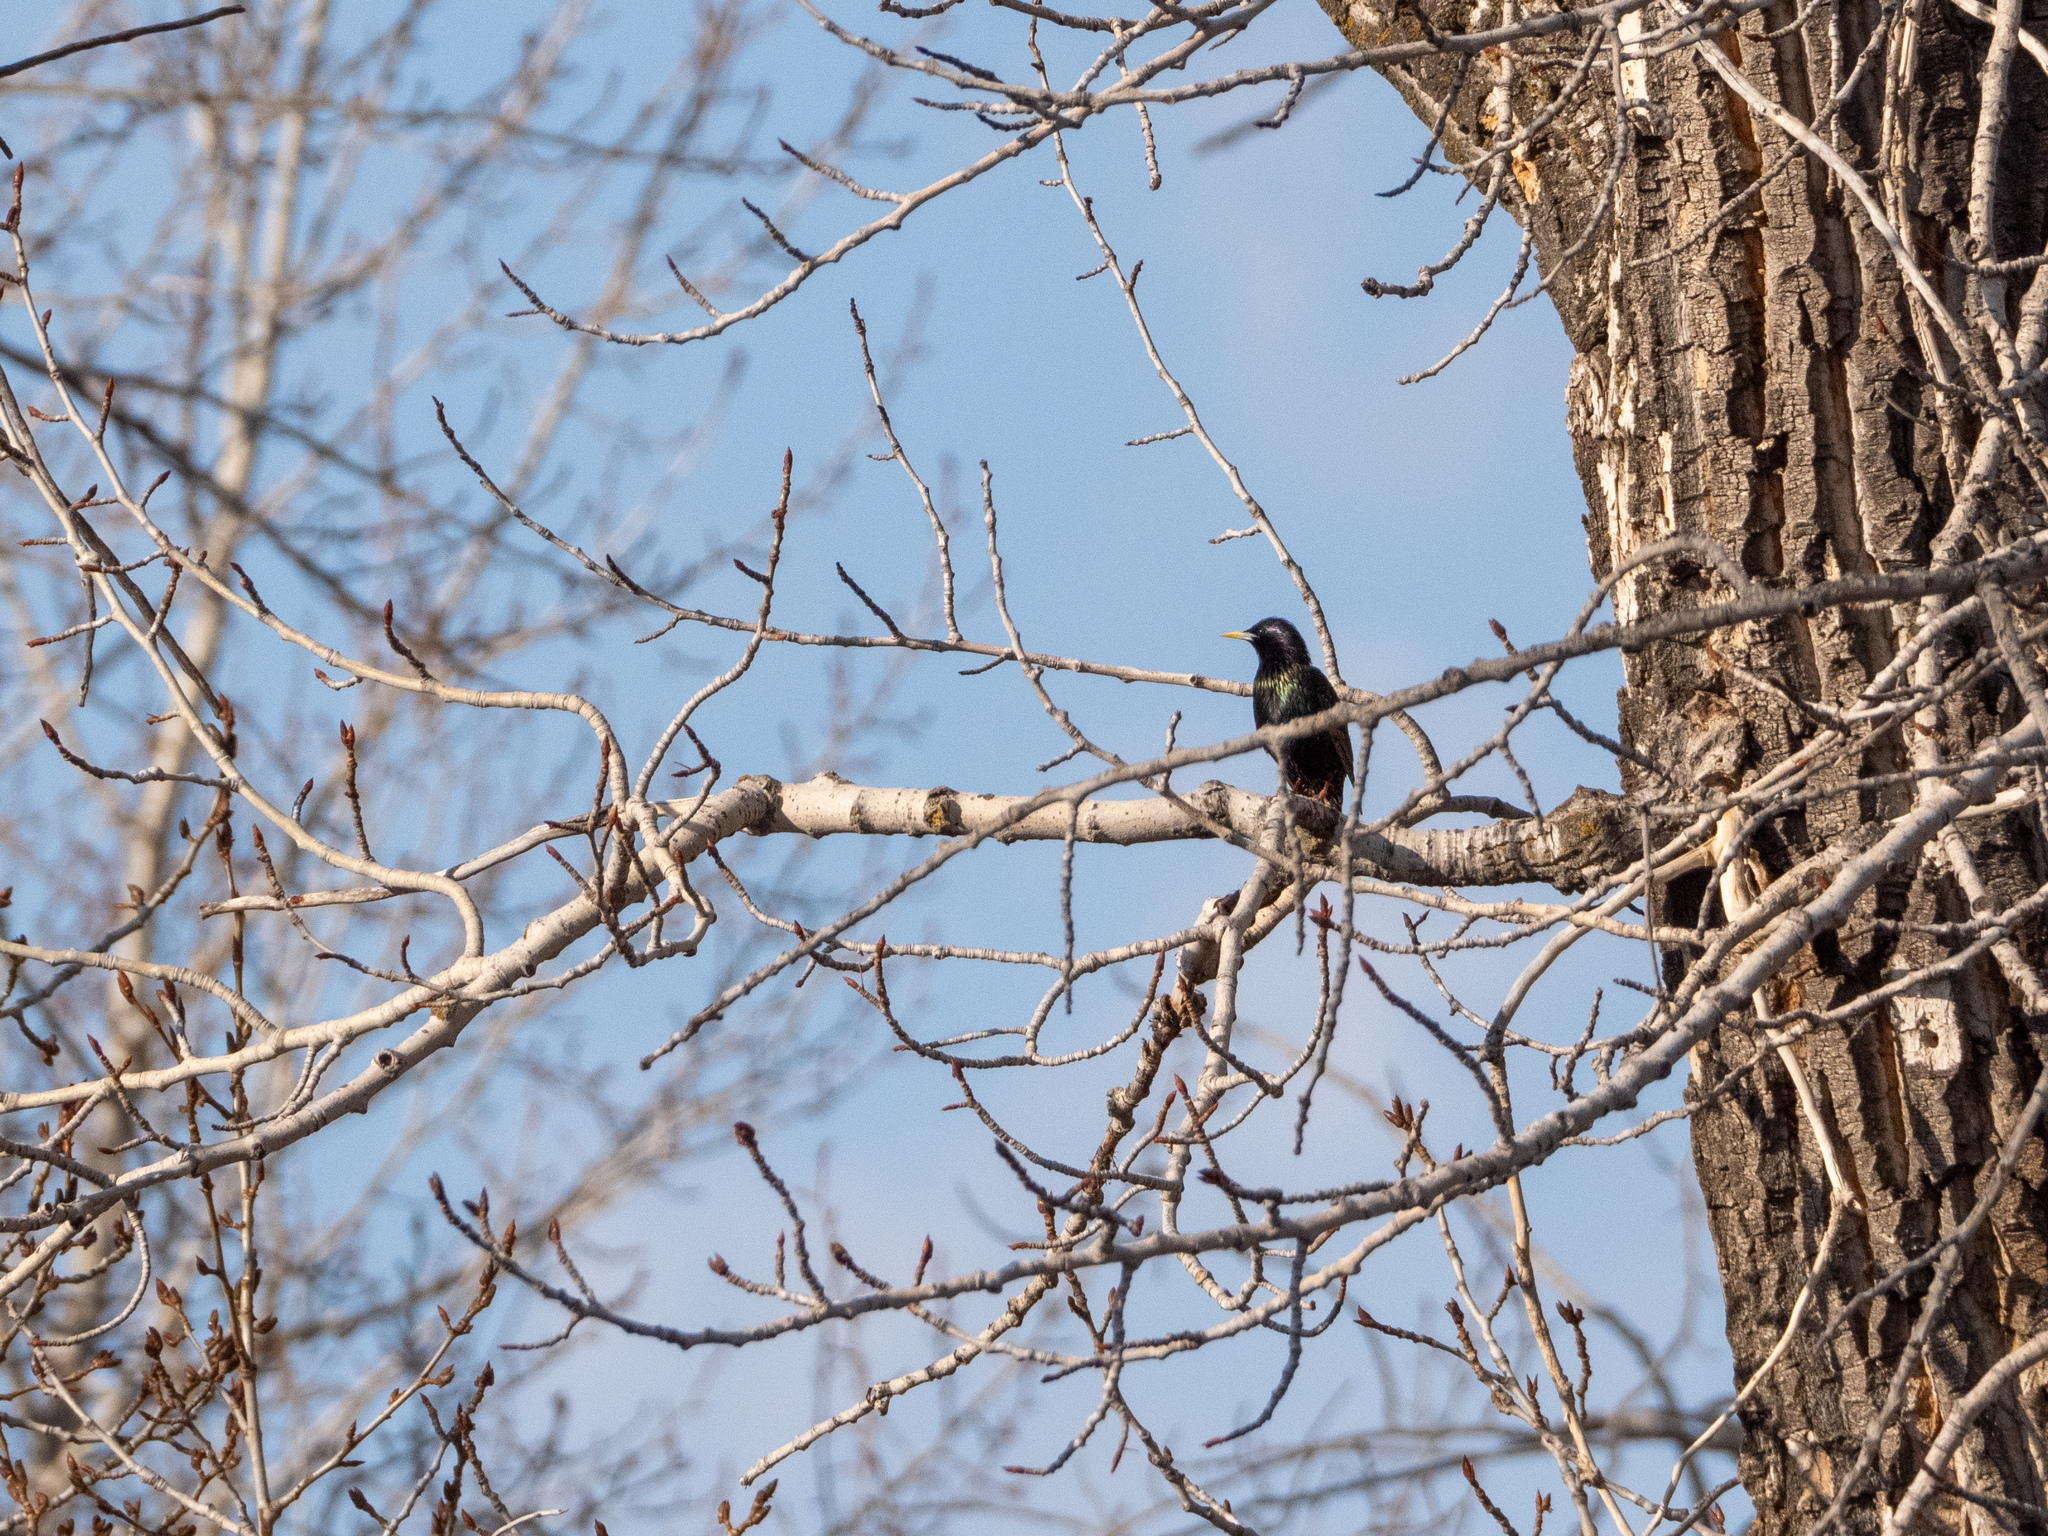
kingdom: Animalia
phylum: Chordata
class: Aves
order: Passeriformes
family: Sturnidae
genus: Sturnus
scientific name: Sturnus vulgaris
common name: Common starling
